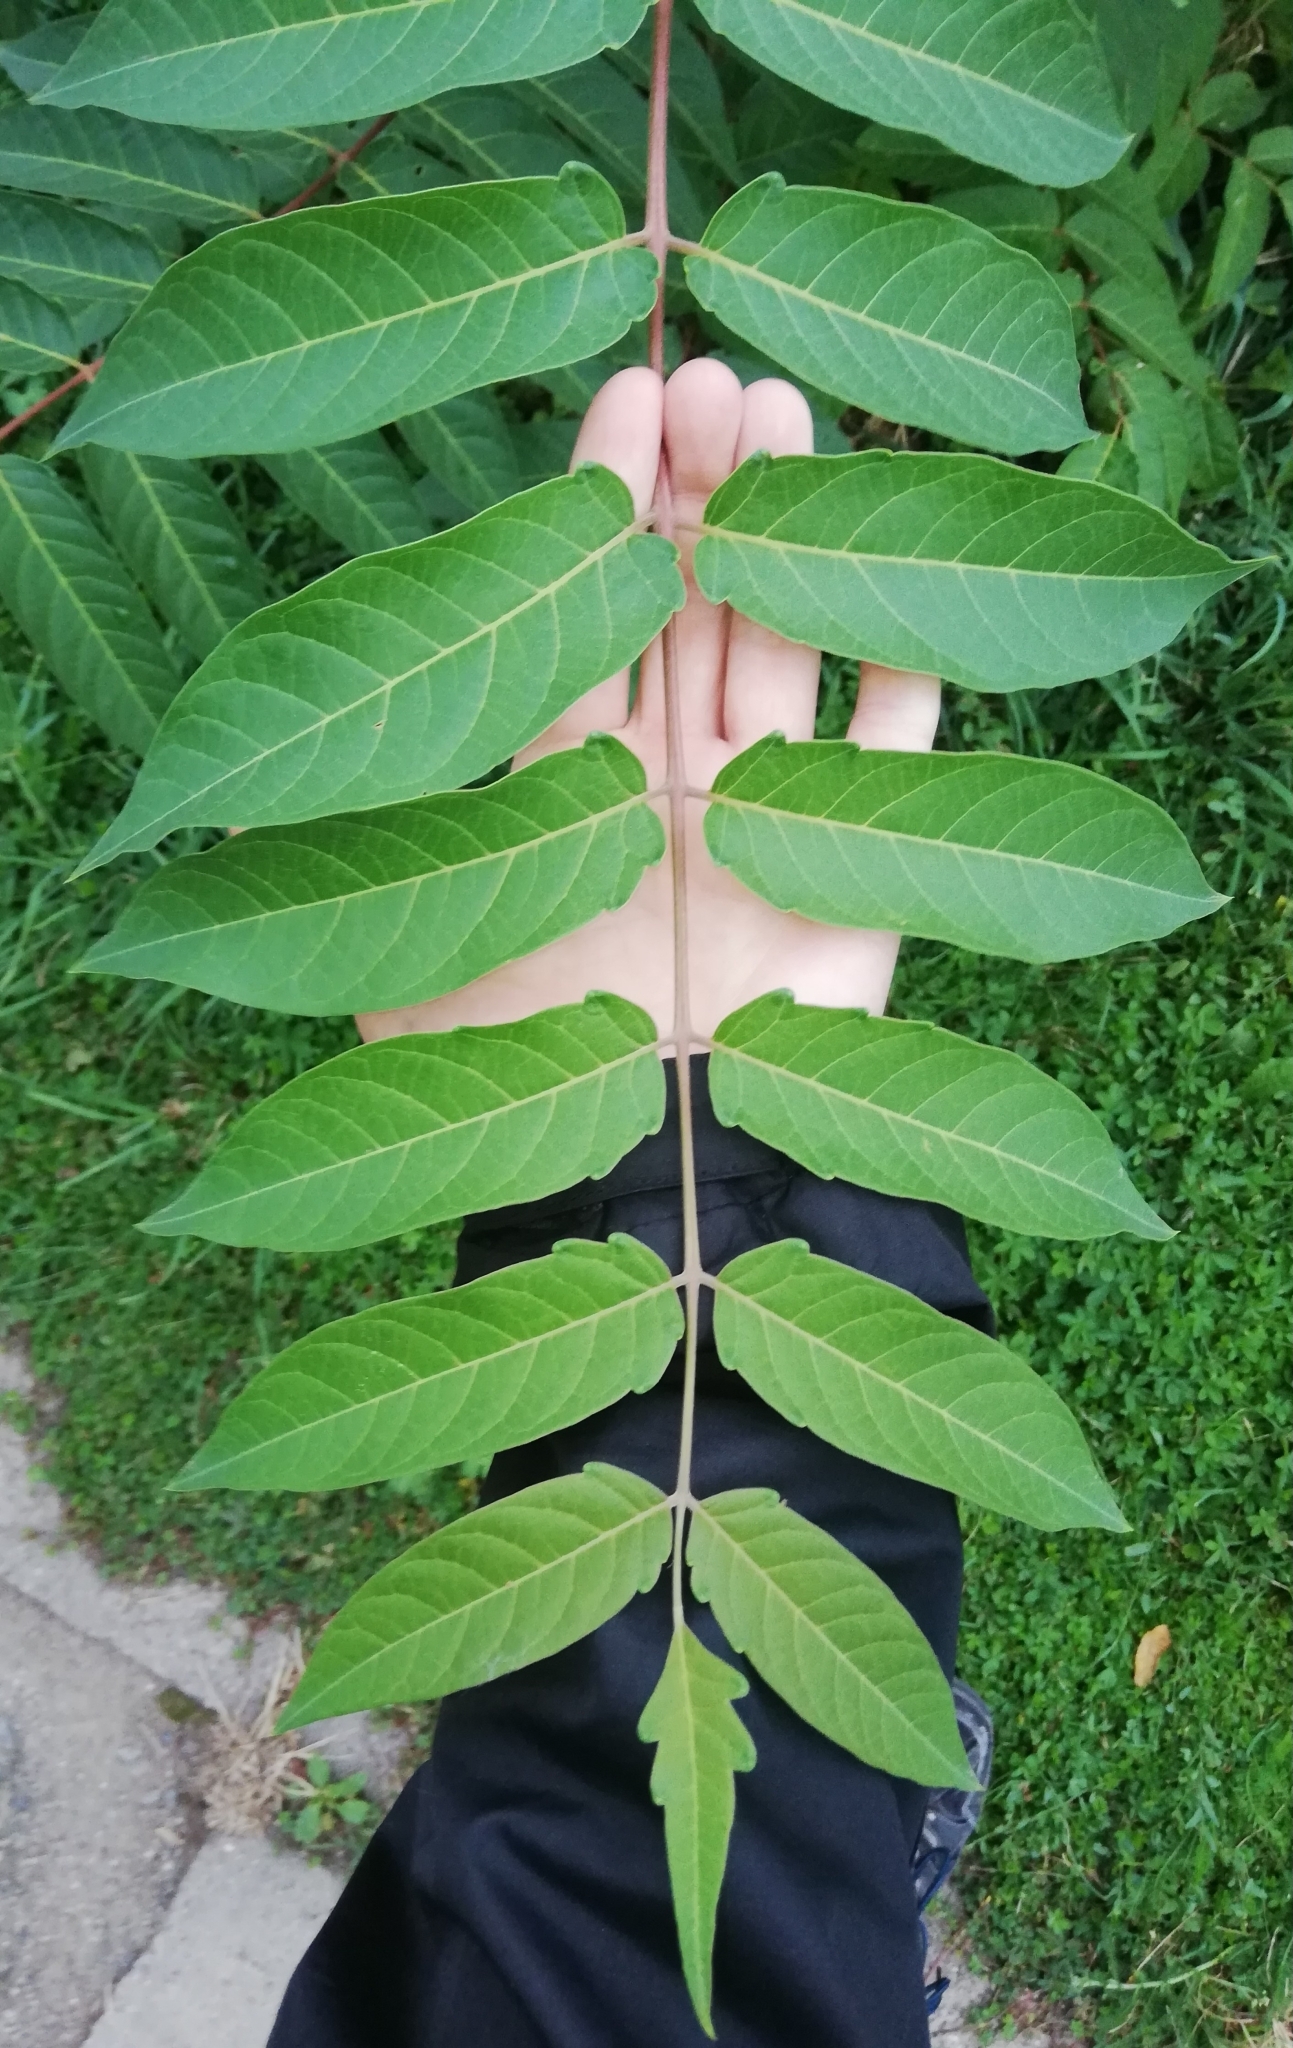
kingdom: Plantae
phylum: Tracheophyta
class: Magnoliopsida
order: Sapindales
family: Simaroubaceae
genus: Ailanthus
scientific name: Ailanthus altissima
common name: Tree-of-heaven
